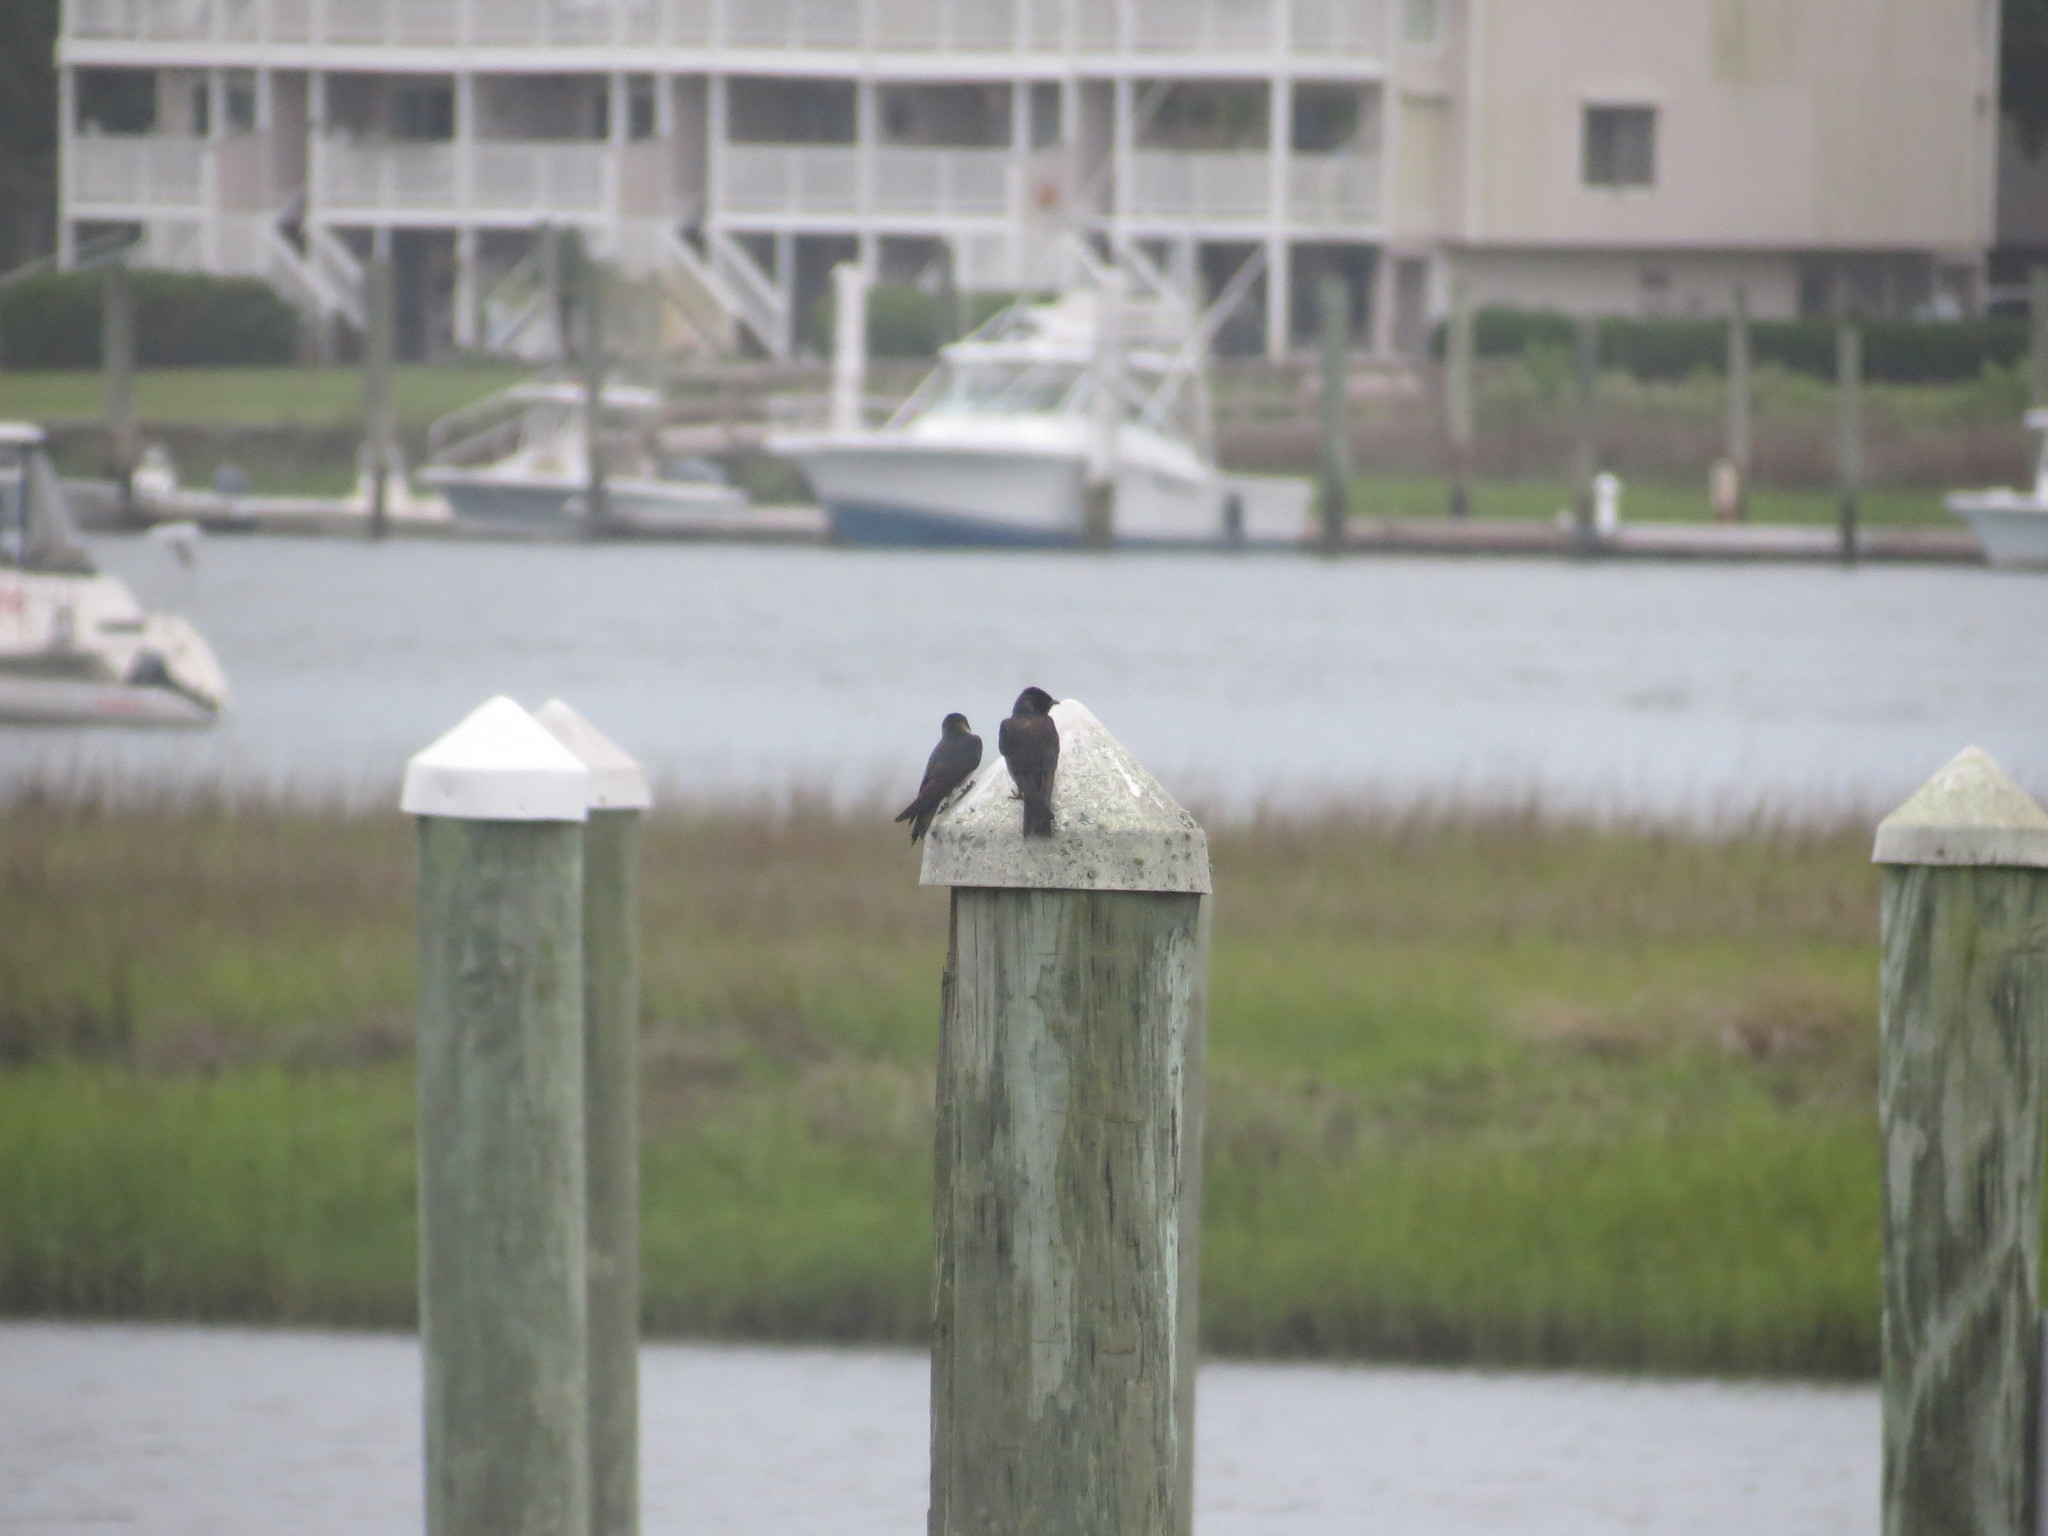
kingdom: Animalia
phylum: Chordata
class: Aves
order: Passeriformes
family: Hirundinidae
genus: Progne
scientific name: Progne subis
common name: Purple martin
